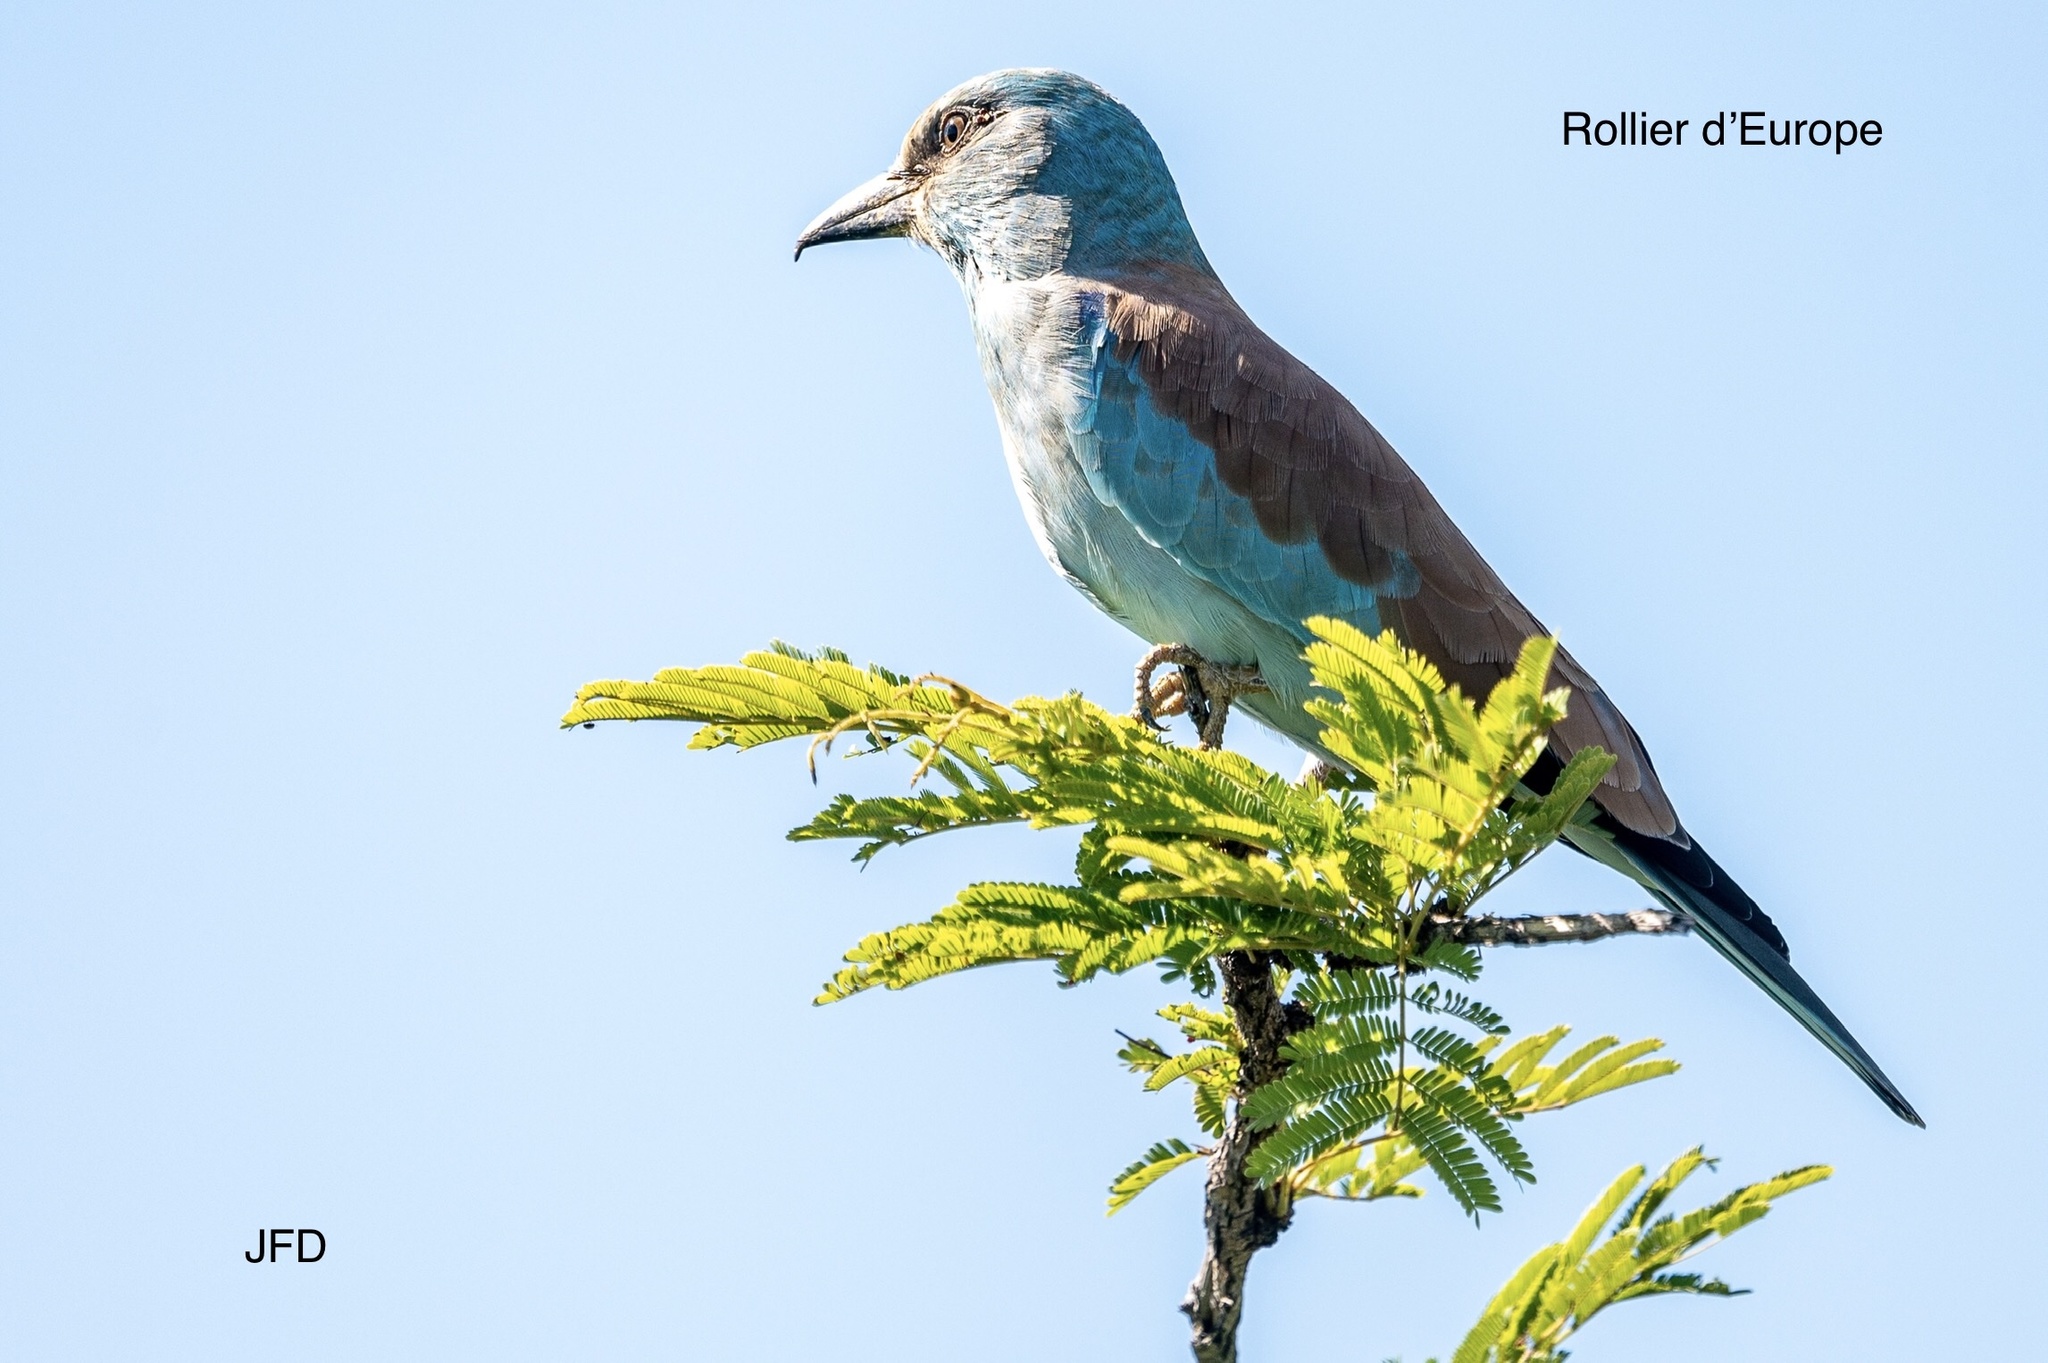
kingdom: Animalia
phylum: Chordata
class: Aves
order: Coraciiformes
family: Coraciidae
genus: Coracias
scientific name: Coracias garrulus
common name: European roller
